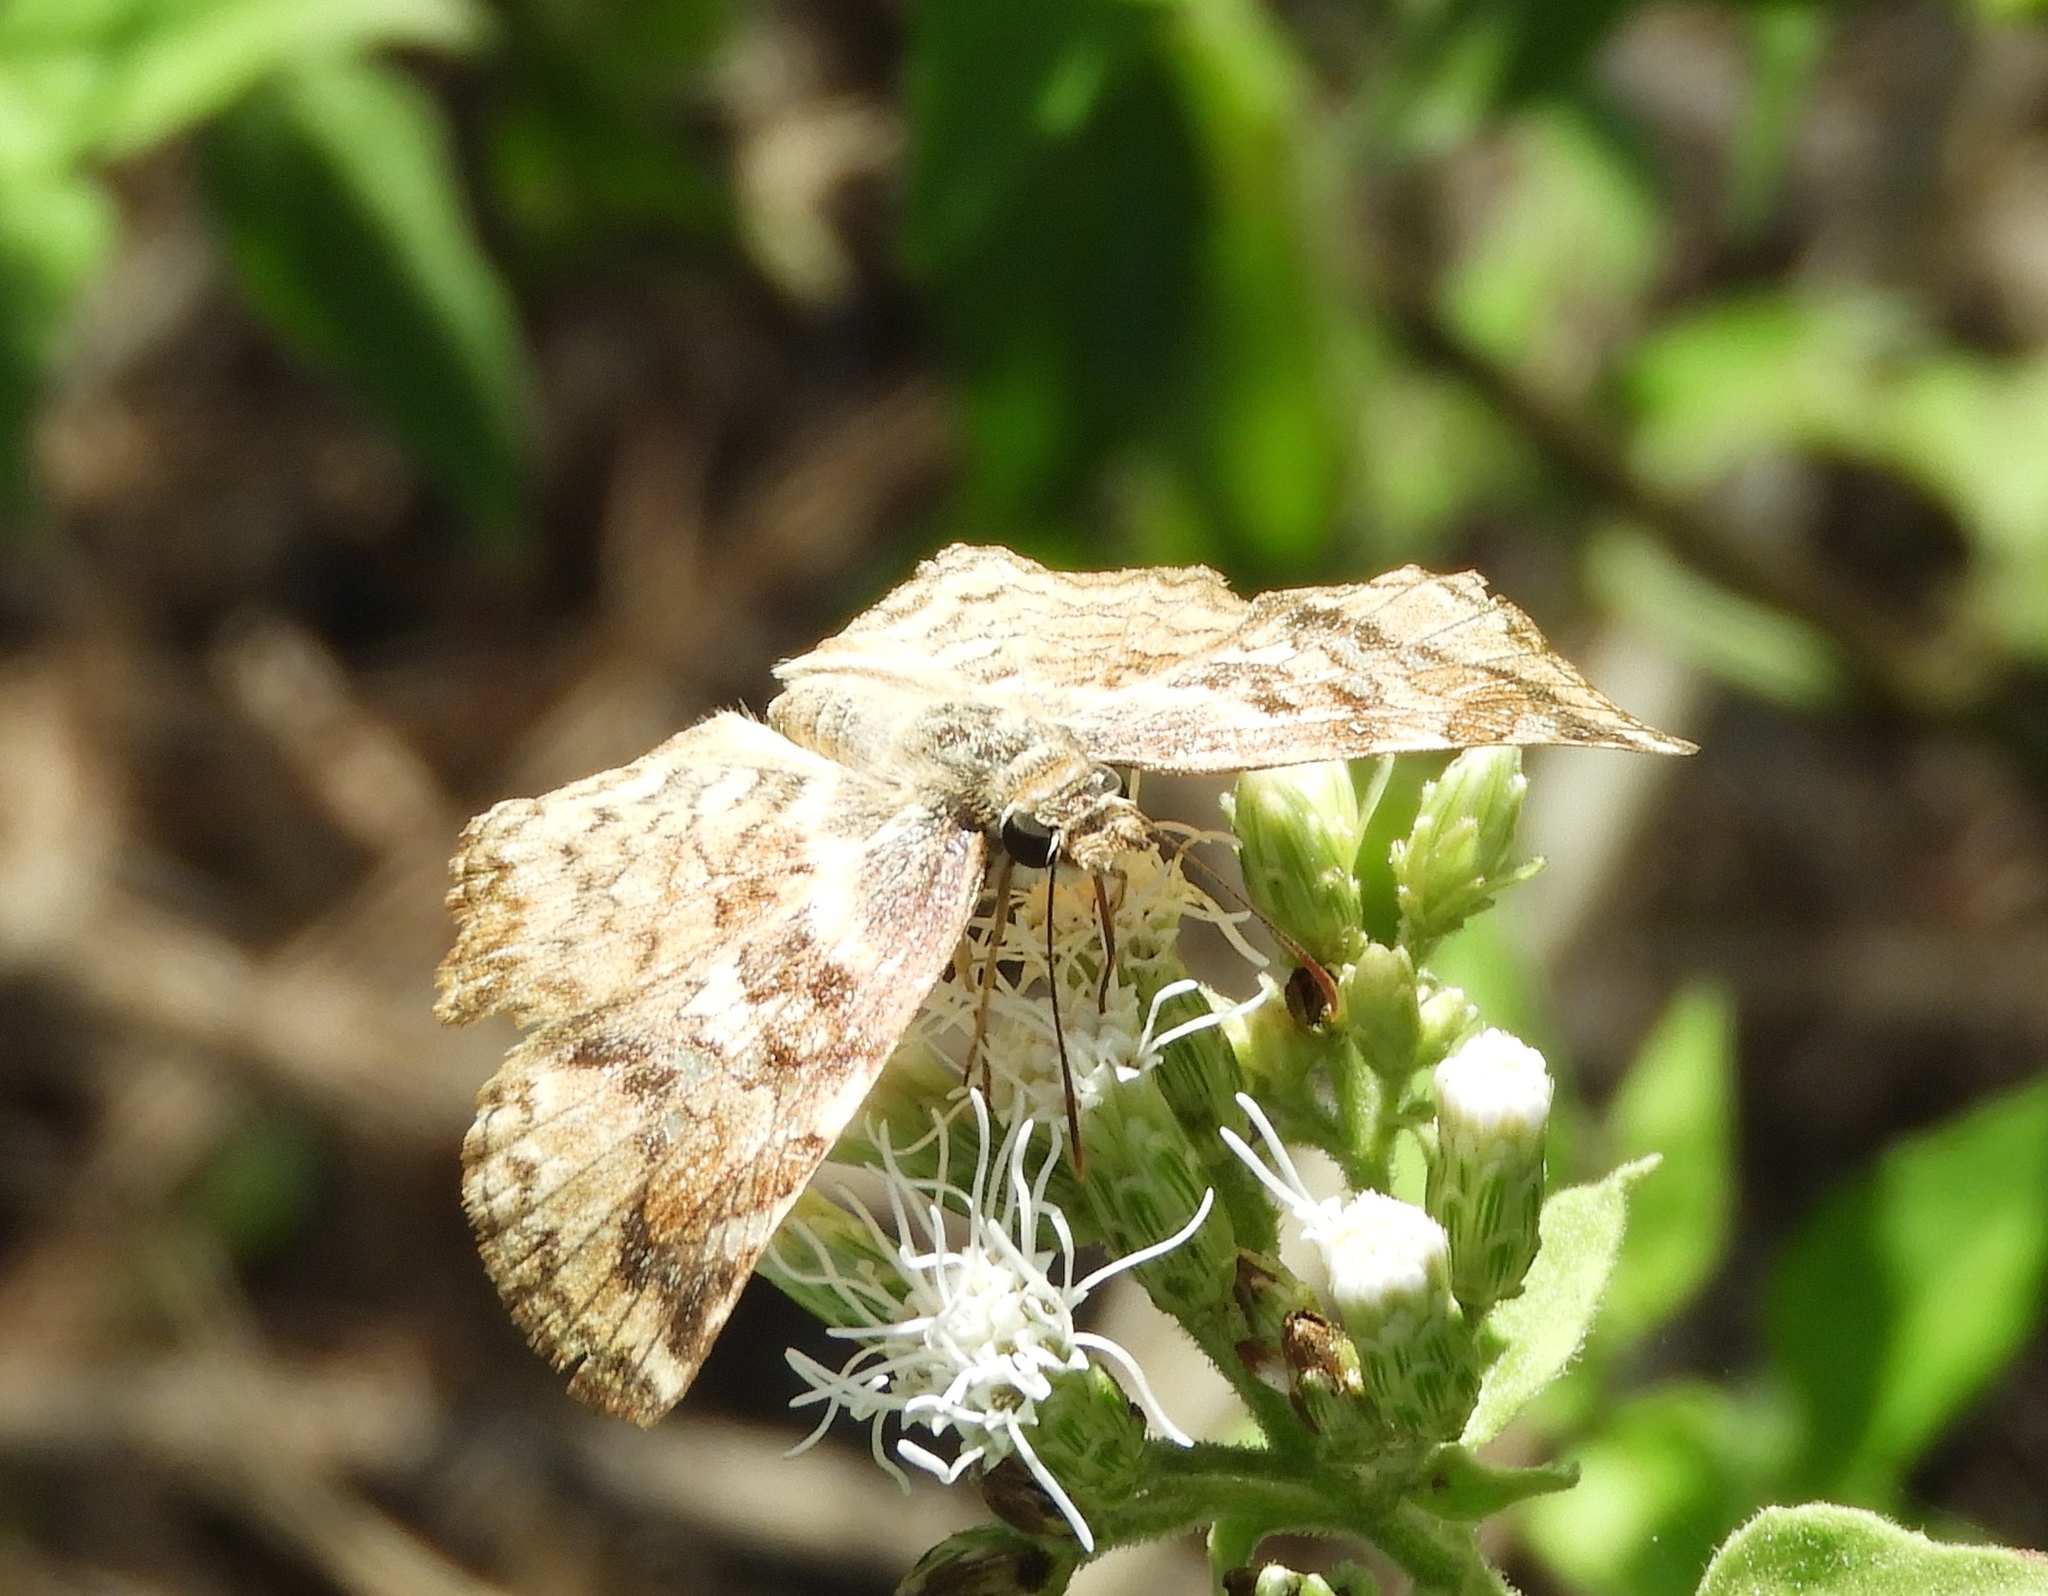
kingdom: Animalia
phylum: Arthropoda
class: Insecta
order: Lepidoptera
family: Hesperiidae
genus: Antigonus
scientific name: Antigonus erosus
